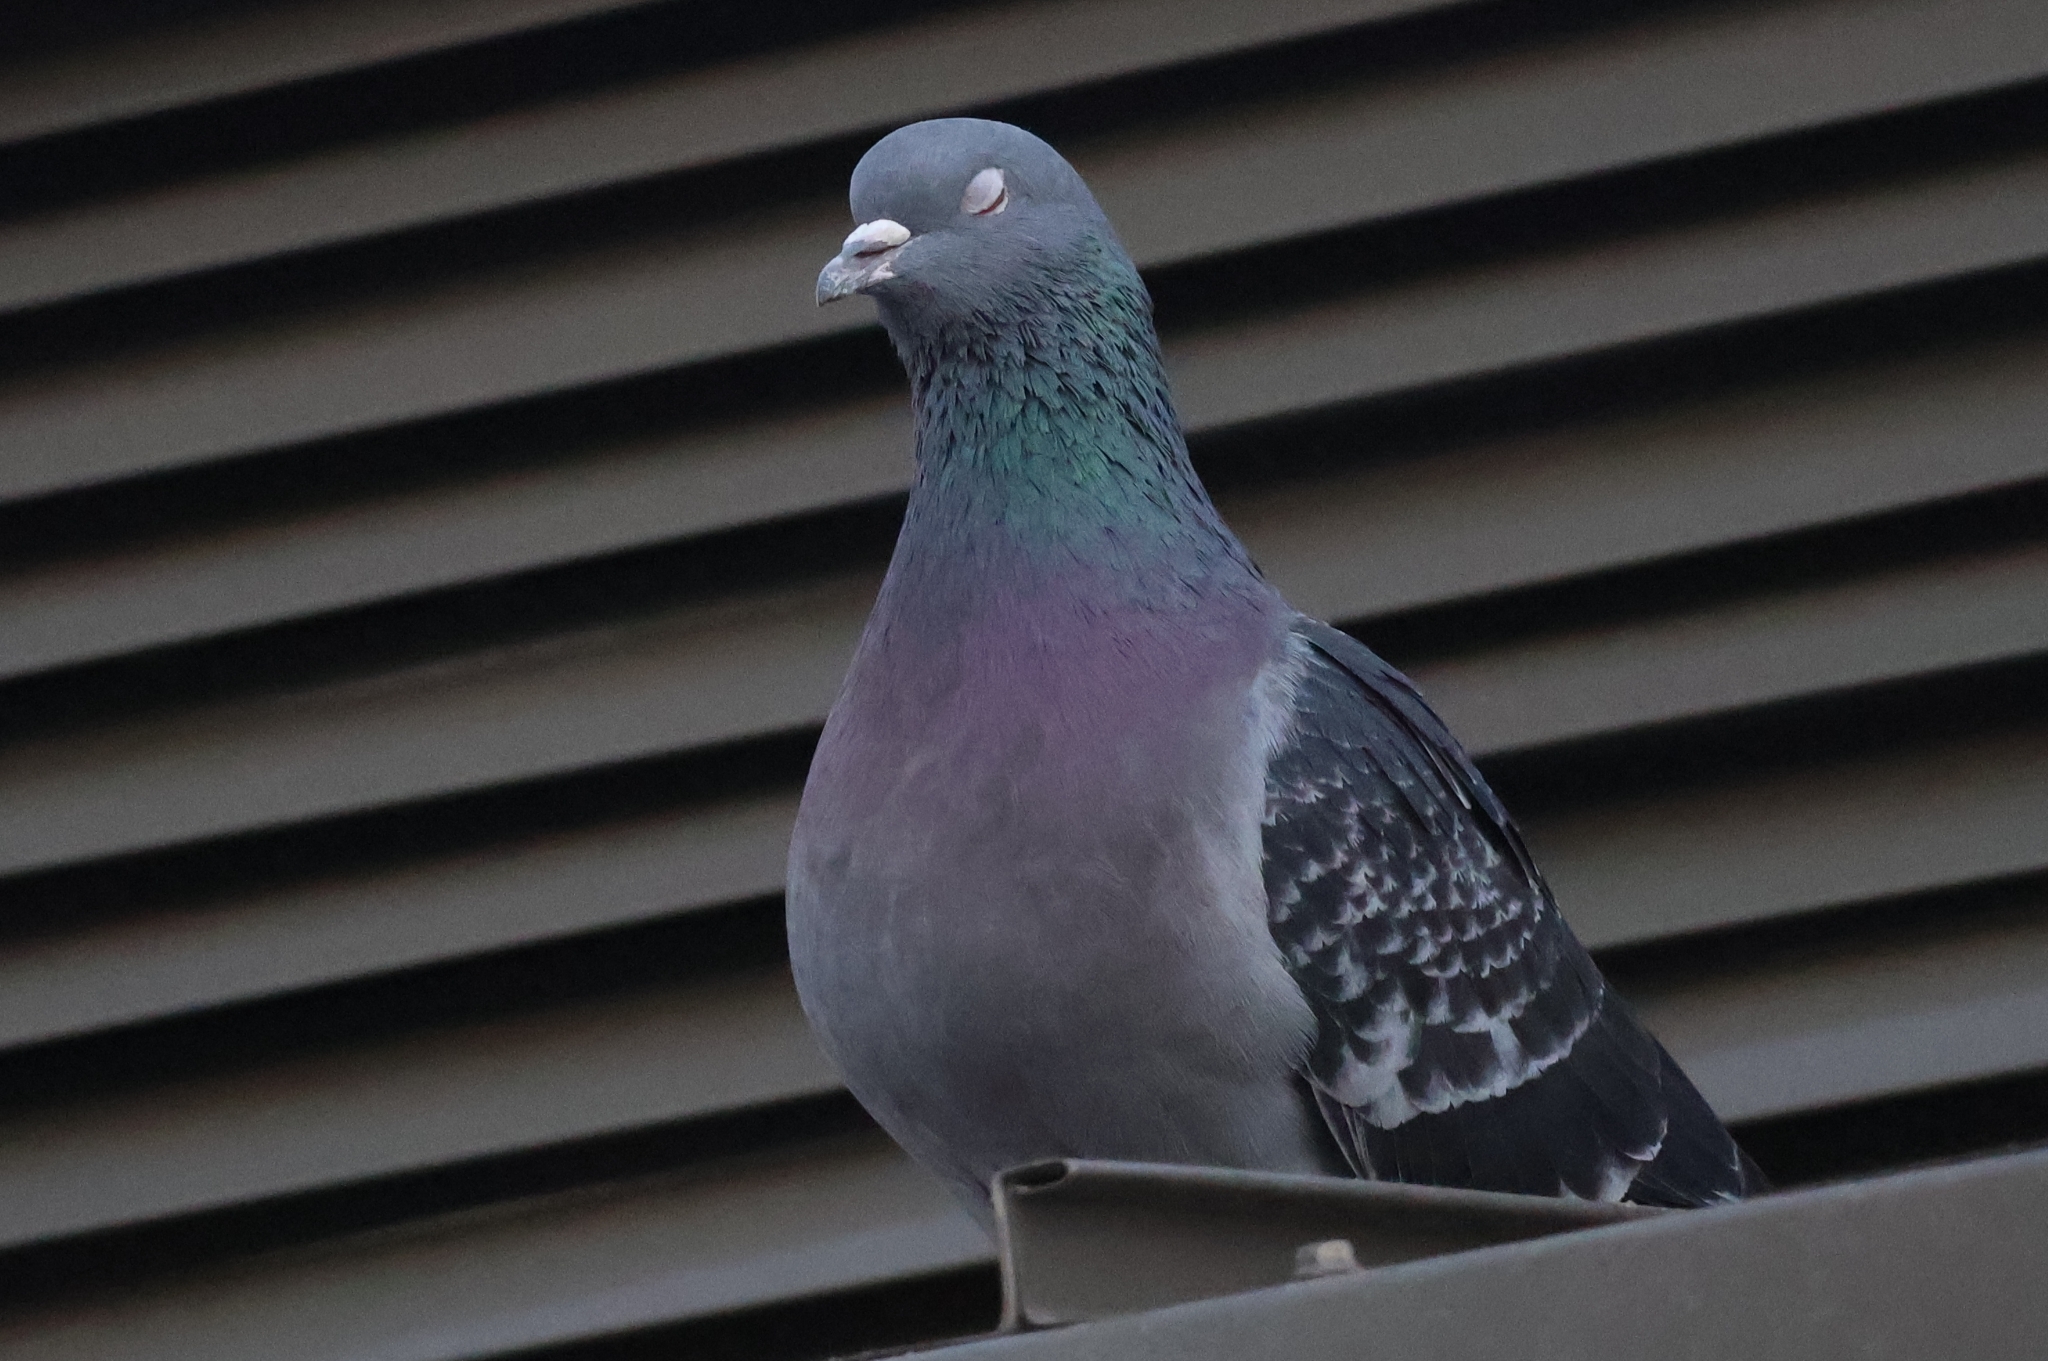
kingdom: Animalia
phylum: Chordata
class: Aves
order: Columbiformes
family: Columbidae
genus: Columba
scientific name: Columba livia
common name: Rock pigeon
